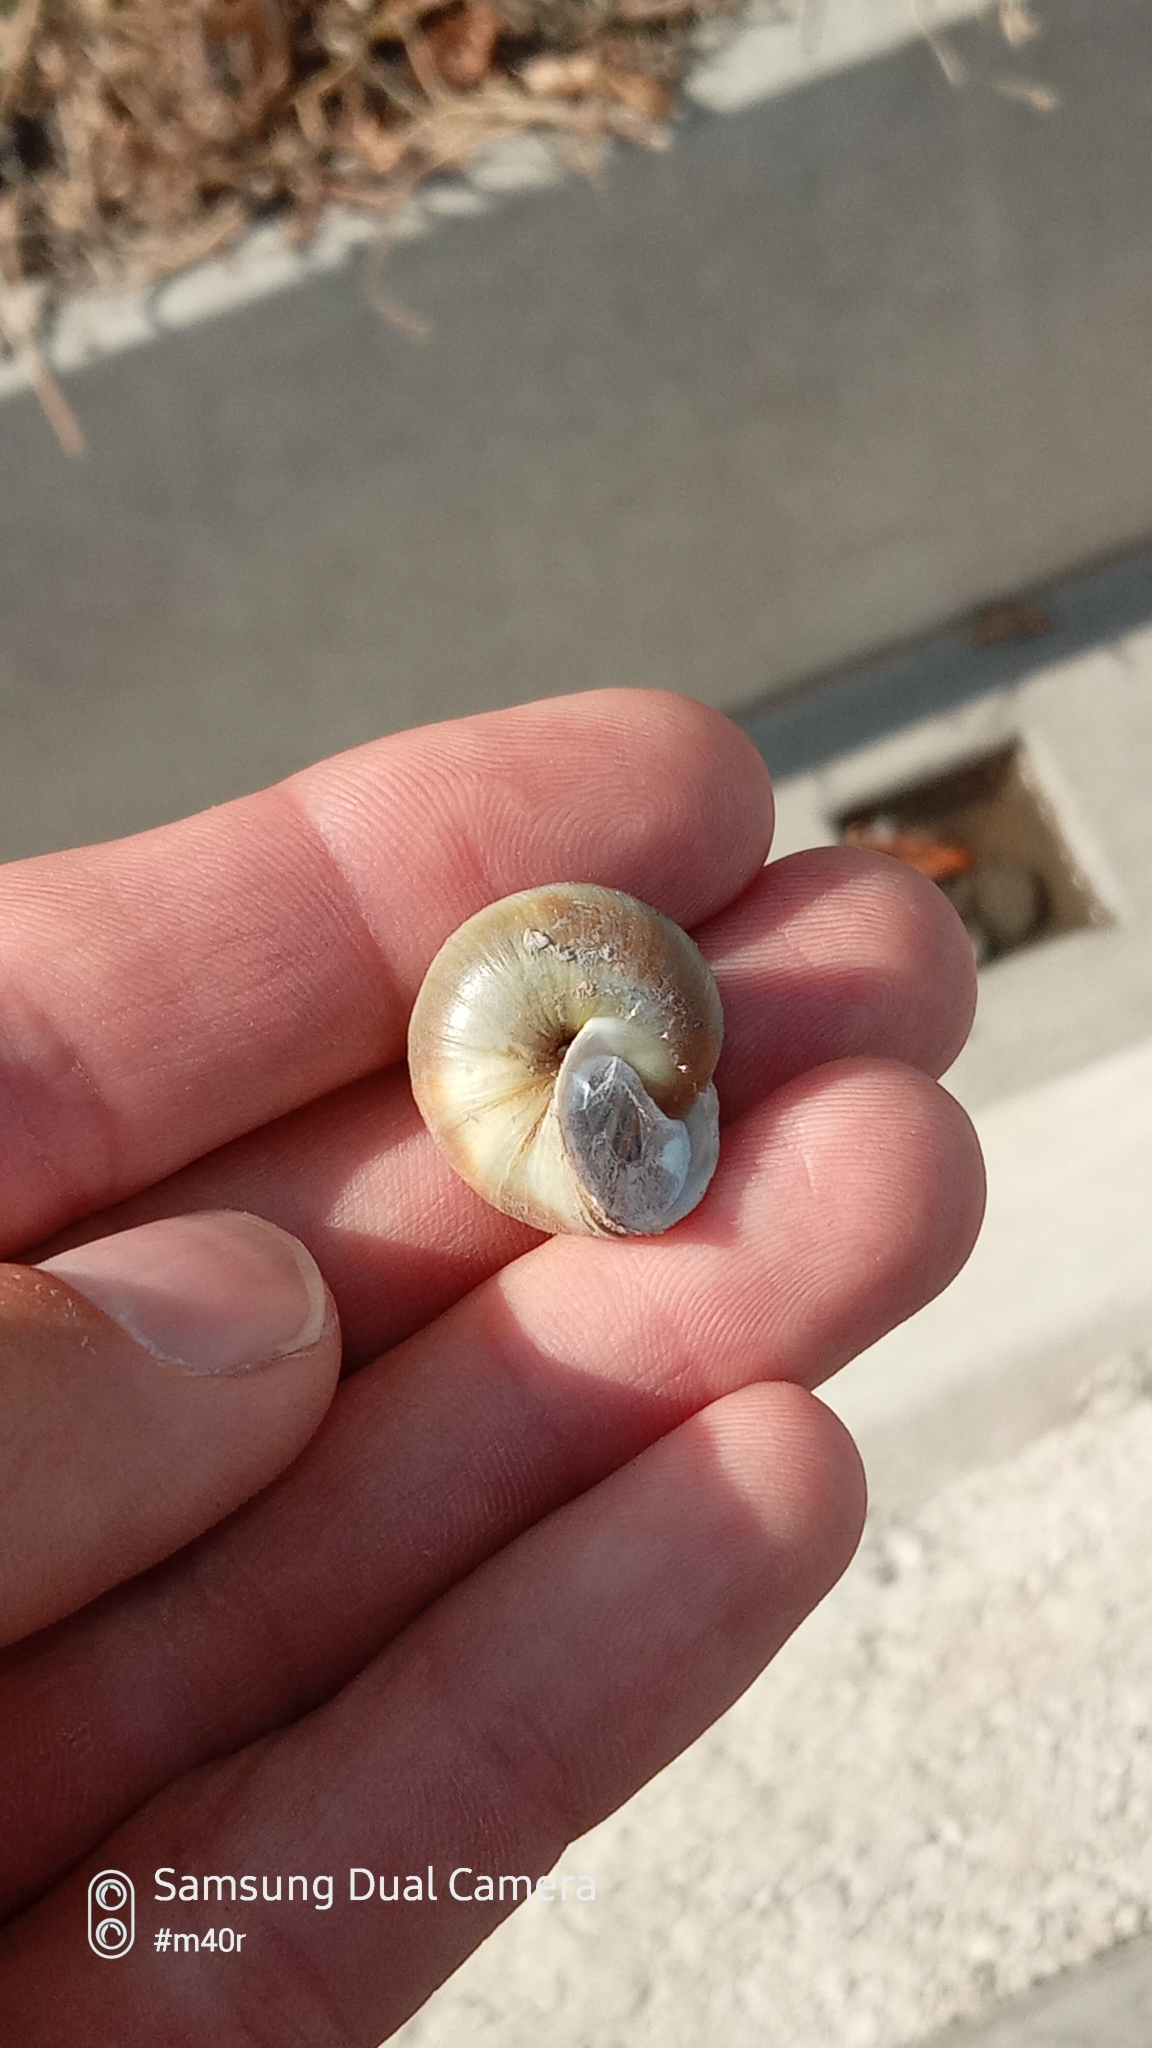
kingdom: Animalia
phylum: Mollusca
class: Gastropoda
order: Stylommatophora
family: Camaenidae
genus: Fruticicola
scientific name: Fruticicola lantzi
